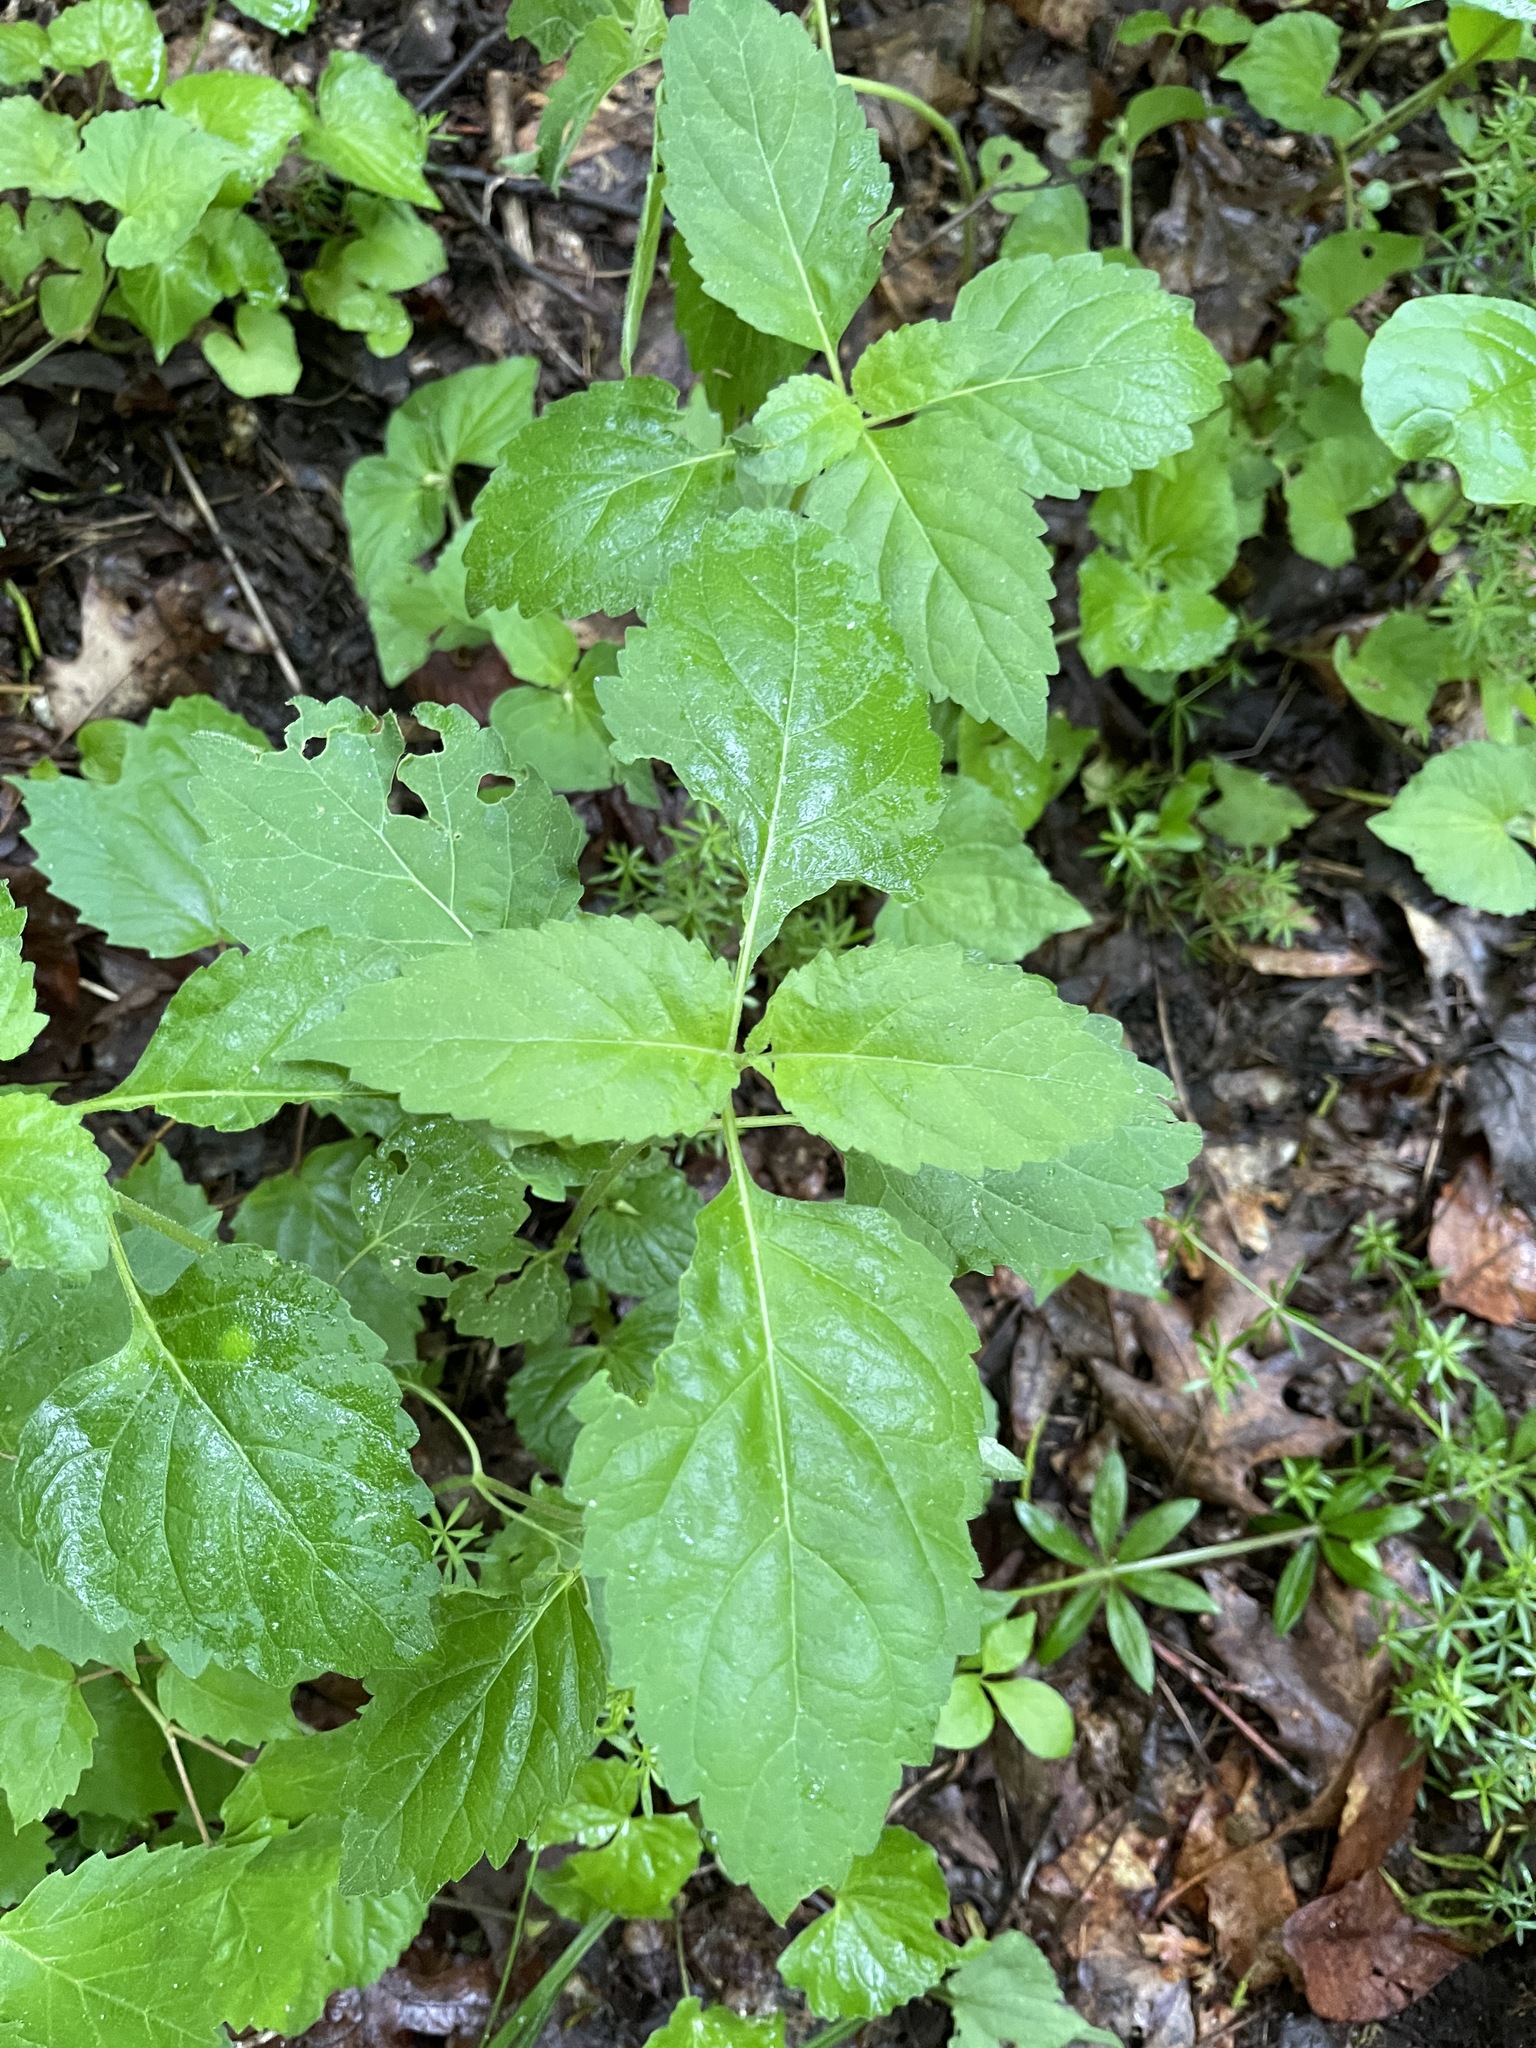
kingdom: Plantae
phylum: Tracheophyta
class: Magnoliopsida
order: Lamiales
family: Phrymaceae
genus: Phryma
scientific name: Phryma leptostachya
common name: American lopseed
